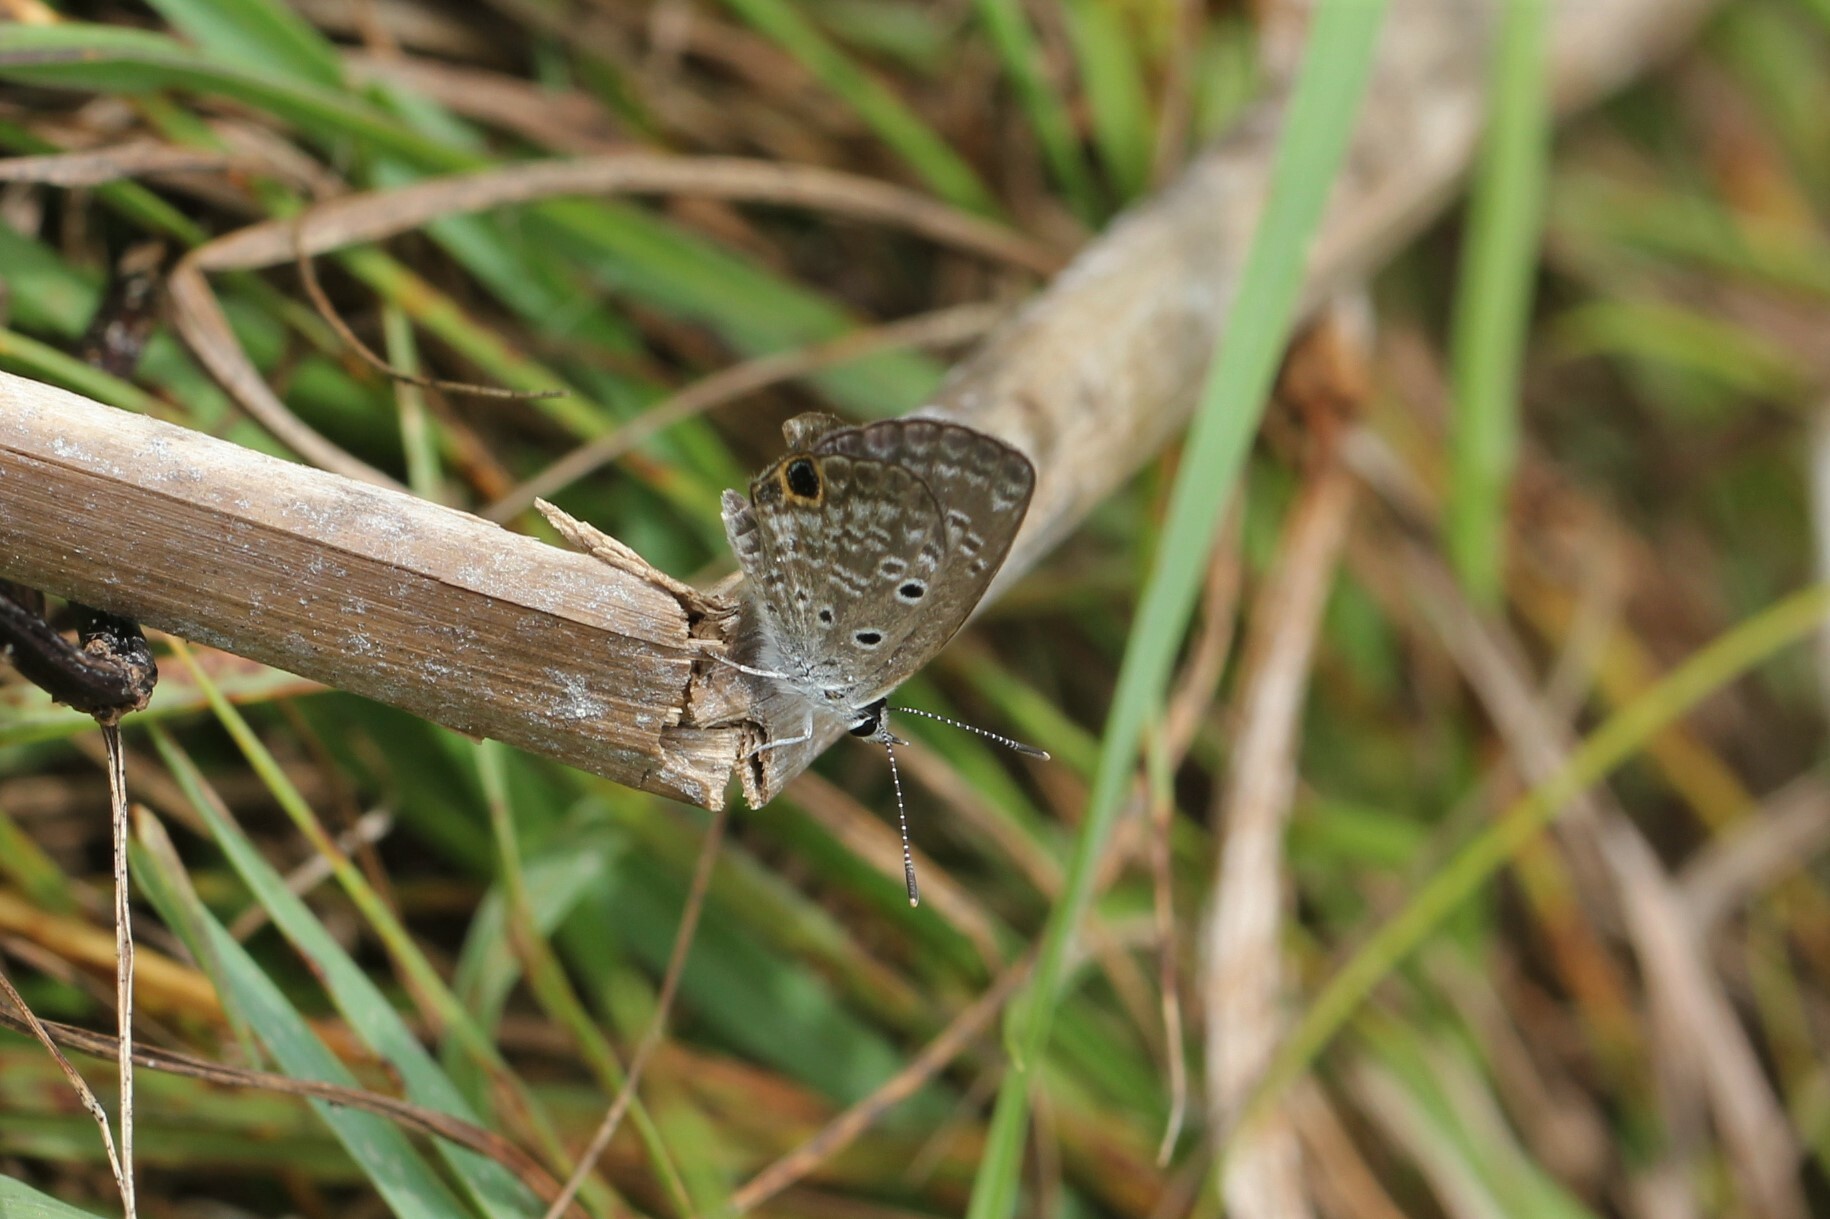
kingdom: Animalia
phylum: Arthropoda
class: Insecta
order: Lepidoptera
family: Lycaenidae
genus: Hemiargus
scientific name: Hemiargus ceraunus
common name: Ceraunus blue
